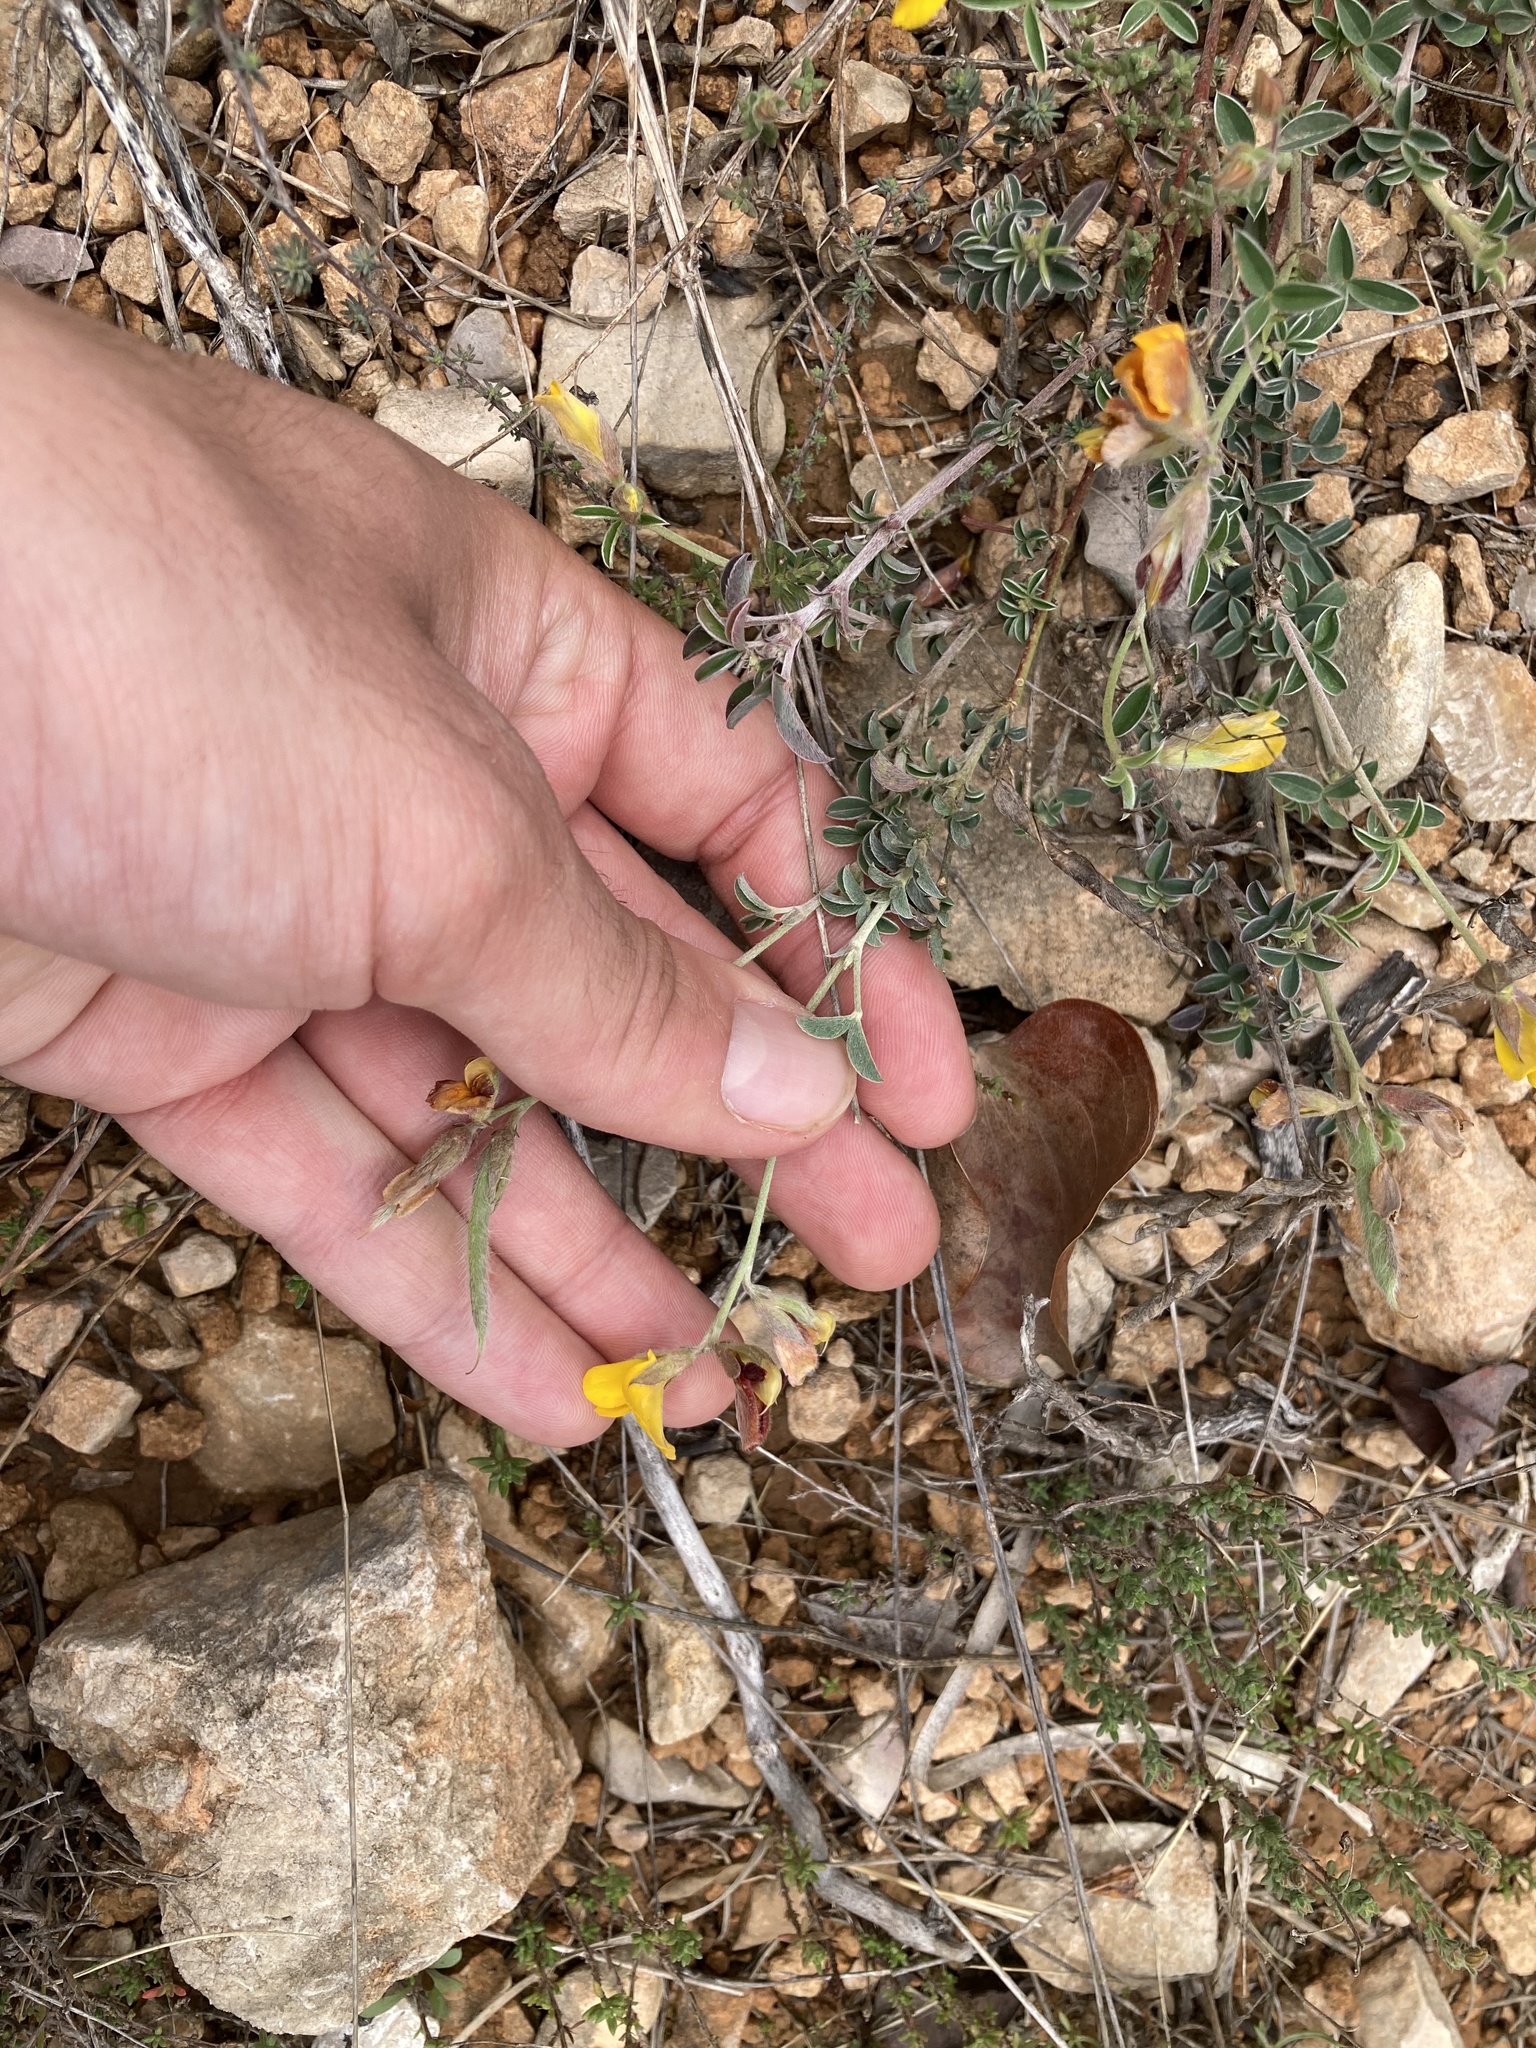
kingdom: Plantae
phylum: Tracheophyta
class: Magnoliopsida
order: Fabales
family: Fabaceae
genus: Argyrolobium
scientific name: Argyrolobium zanonii
